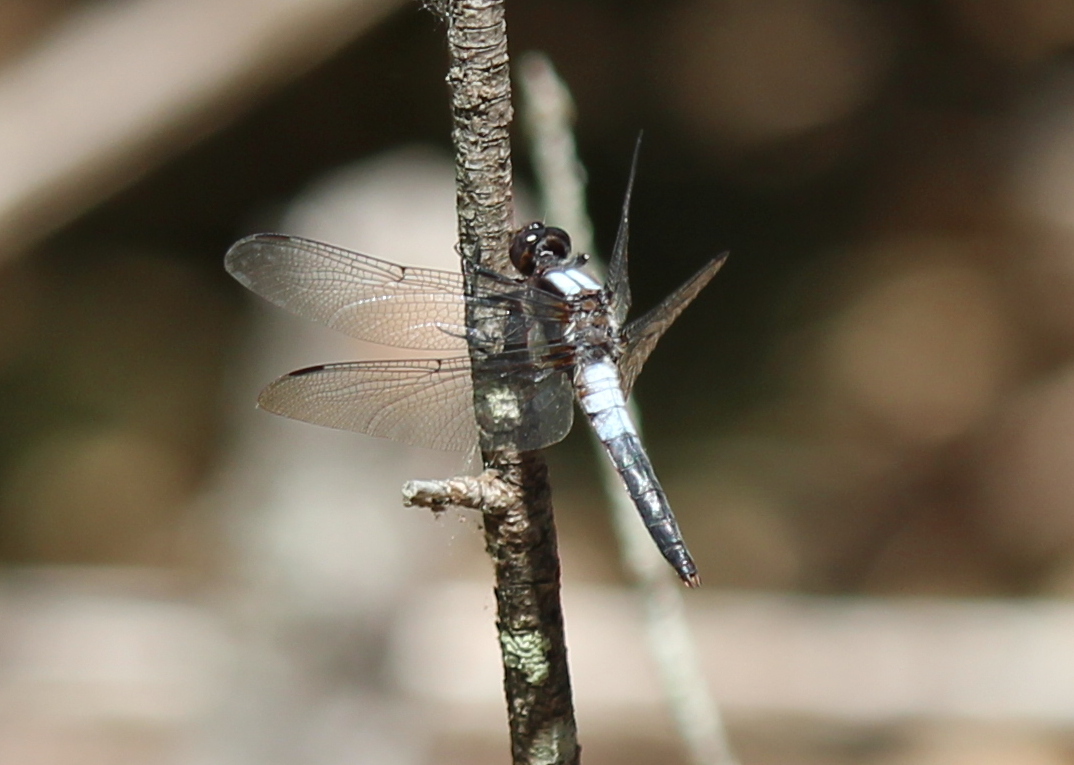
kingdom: Animalia
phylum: Arthropoda
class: Insecta
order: Odonata
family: Libellulidae
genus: Ladona
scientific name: Ladona julia
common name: Chalk-fronted corporal
